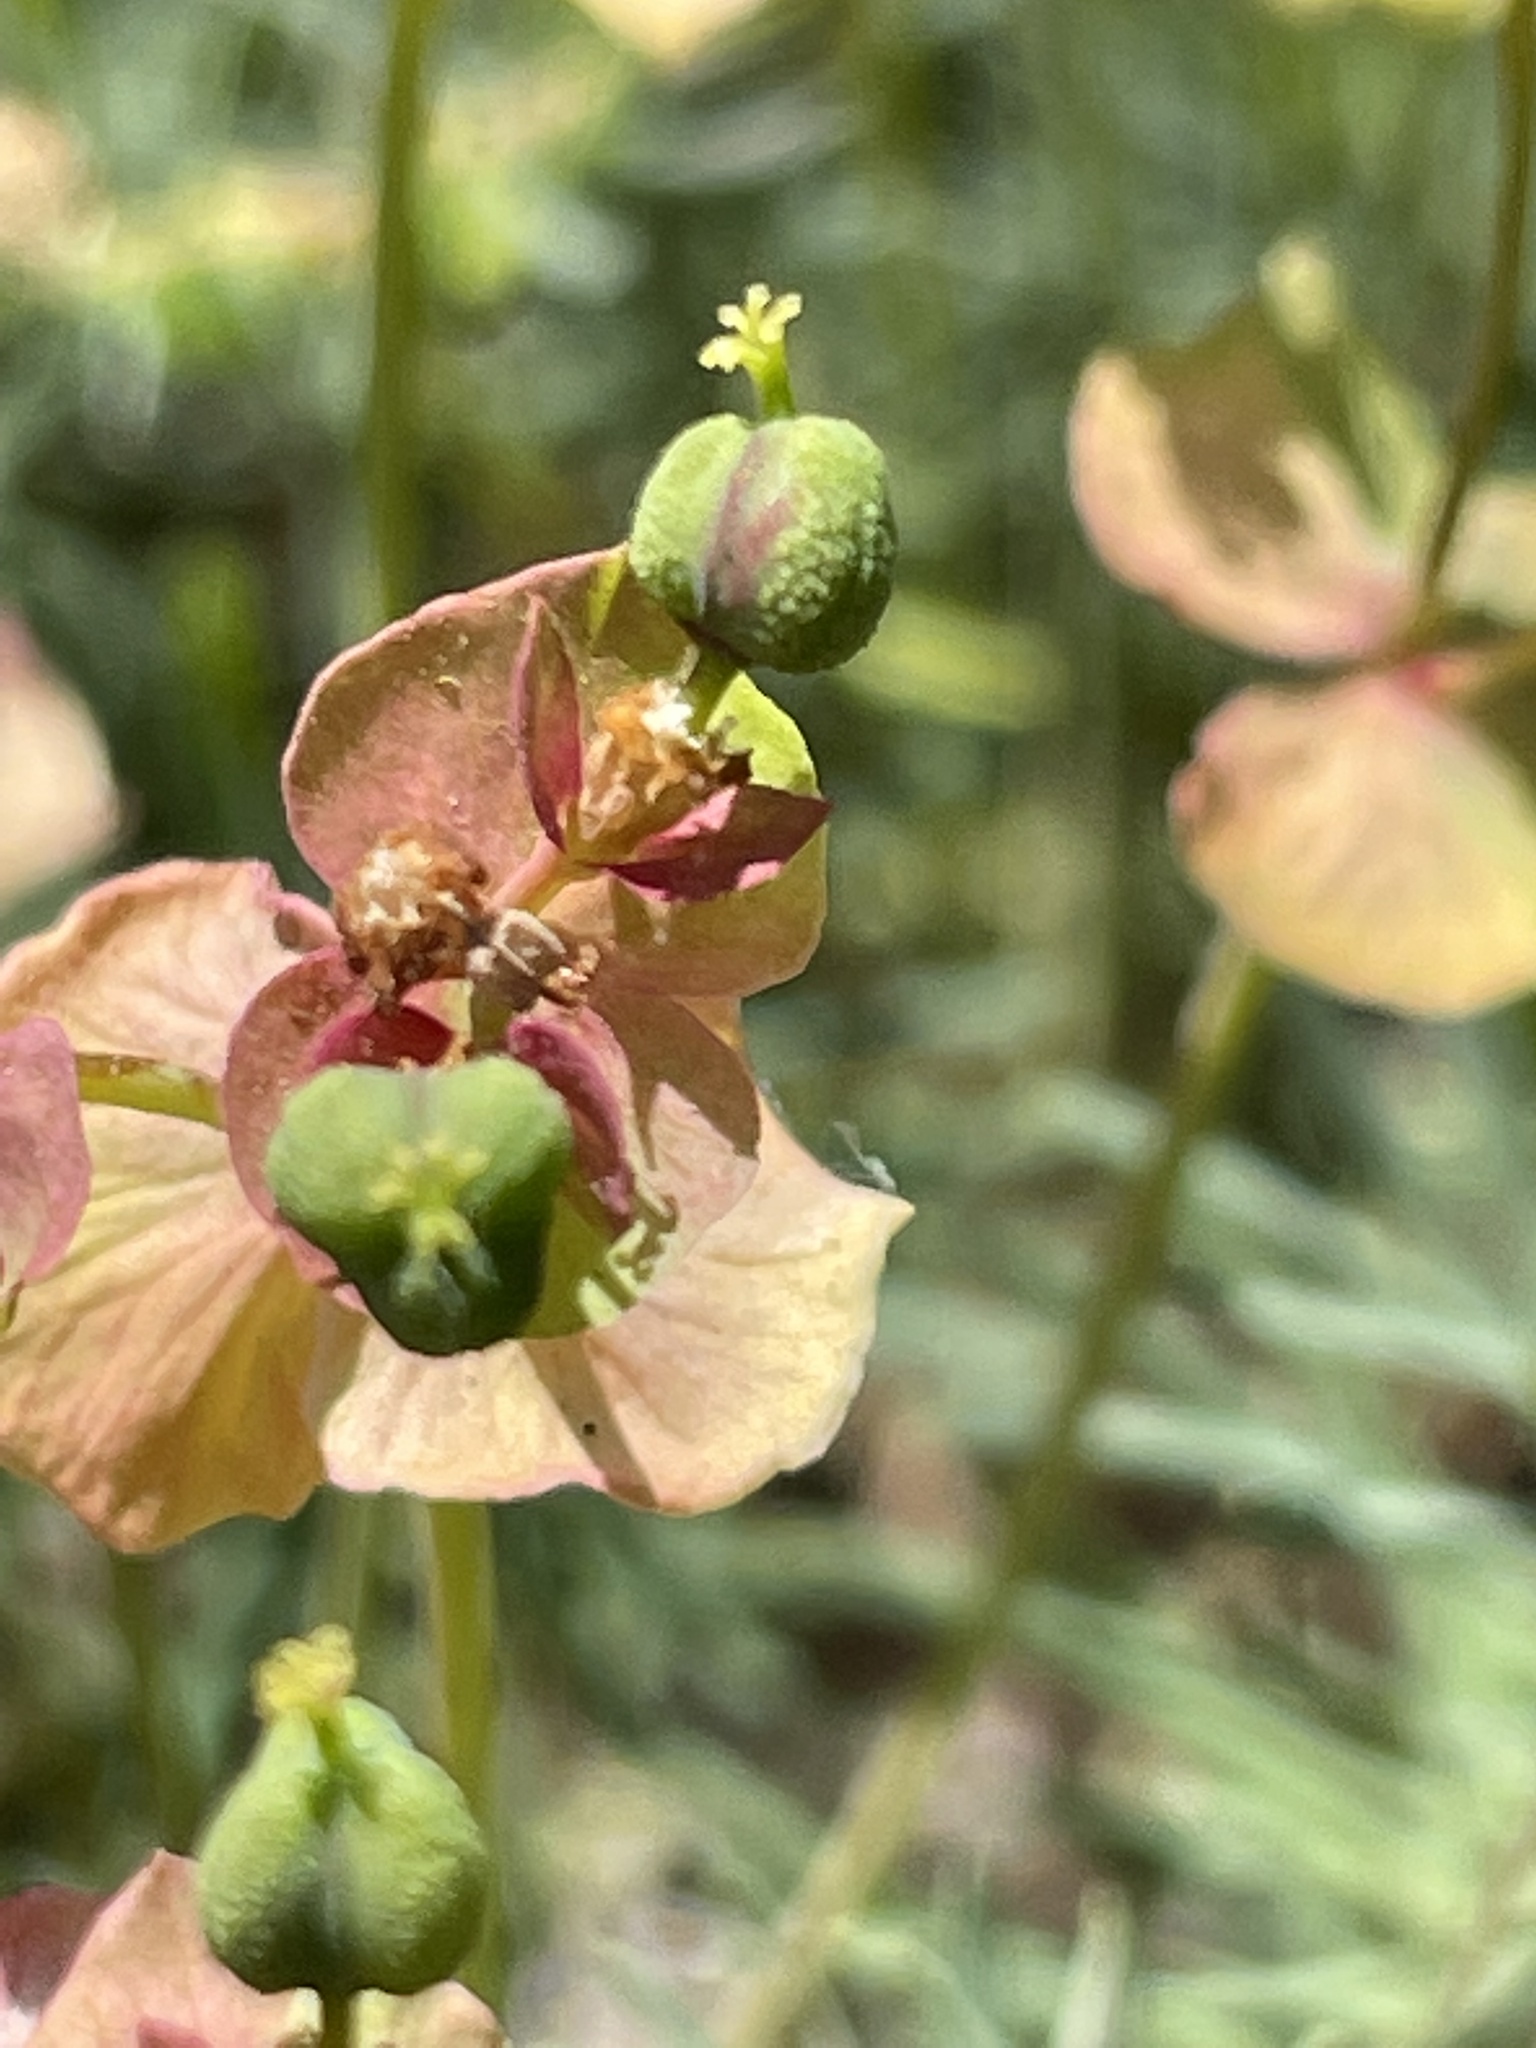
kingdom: Plantae
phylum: Tracheophyta
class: Magnoliopsida
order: Malpighiales
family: Euphorbiaceae
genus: Euphorbia
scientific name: Euphorbia cyparissias
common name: Cypress spurge
